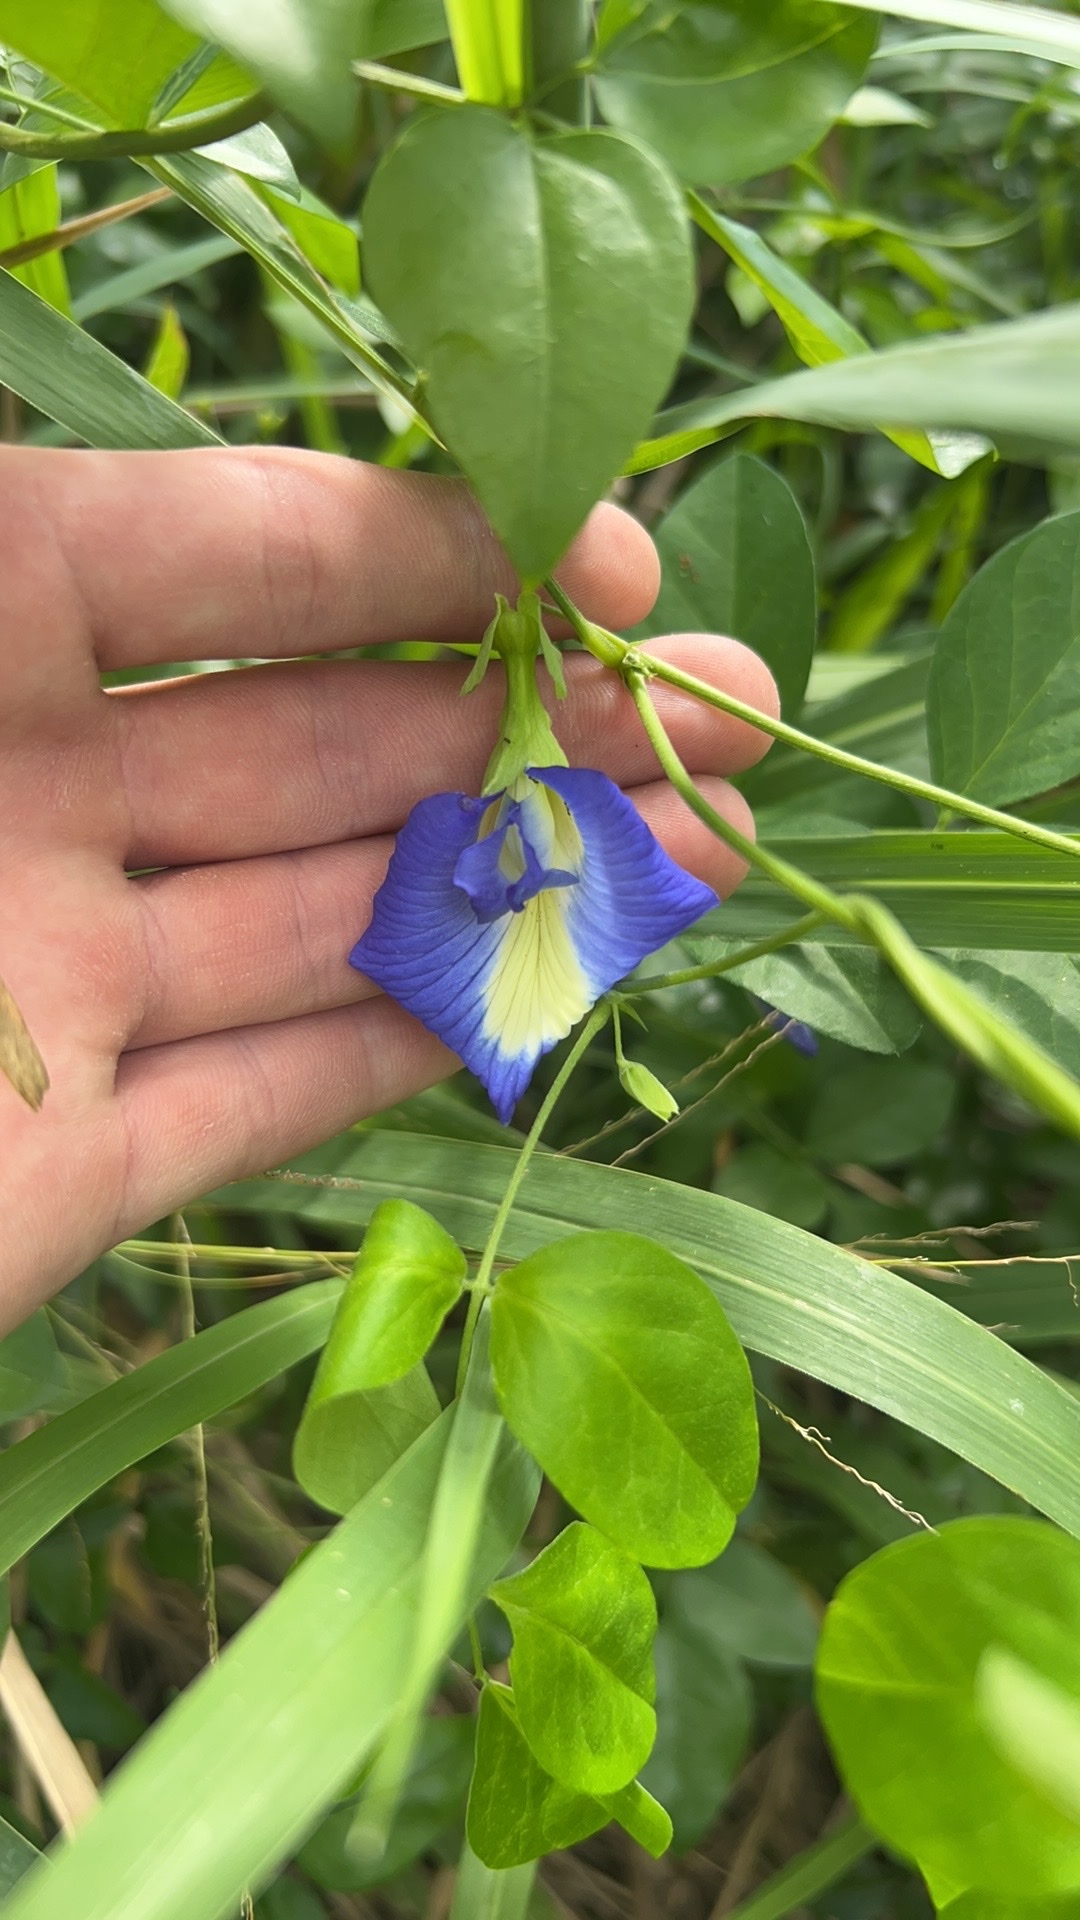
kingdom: Plantae
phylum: Tracheophyta
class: Magnoliopsida
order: Fabales
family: Fabaceae
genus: Clitoria
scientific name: Clitoria ternatea
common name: Asian pigeonwings
